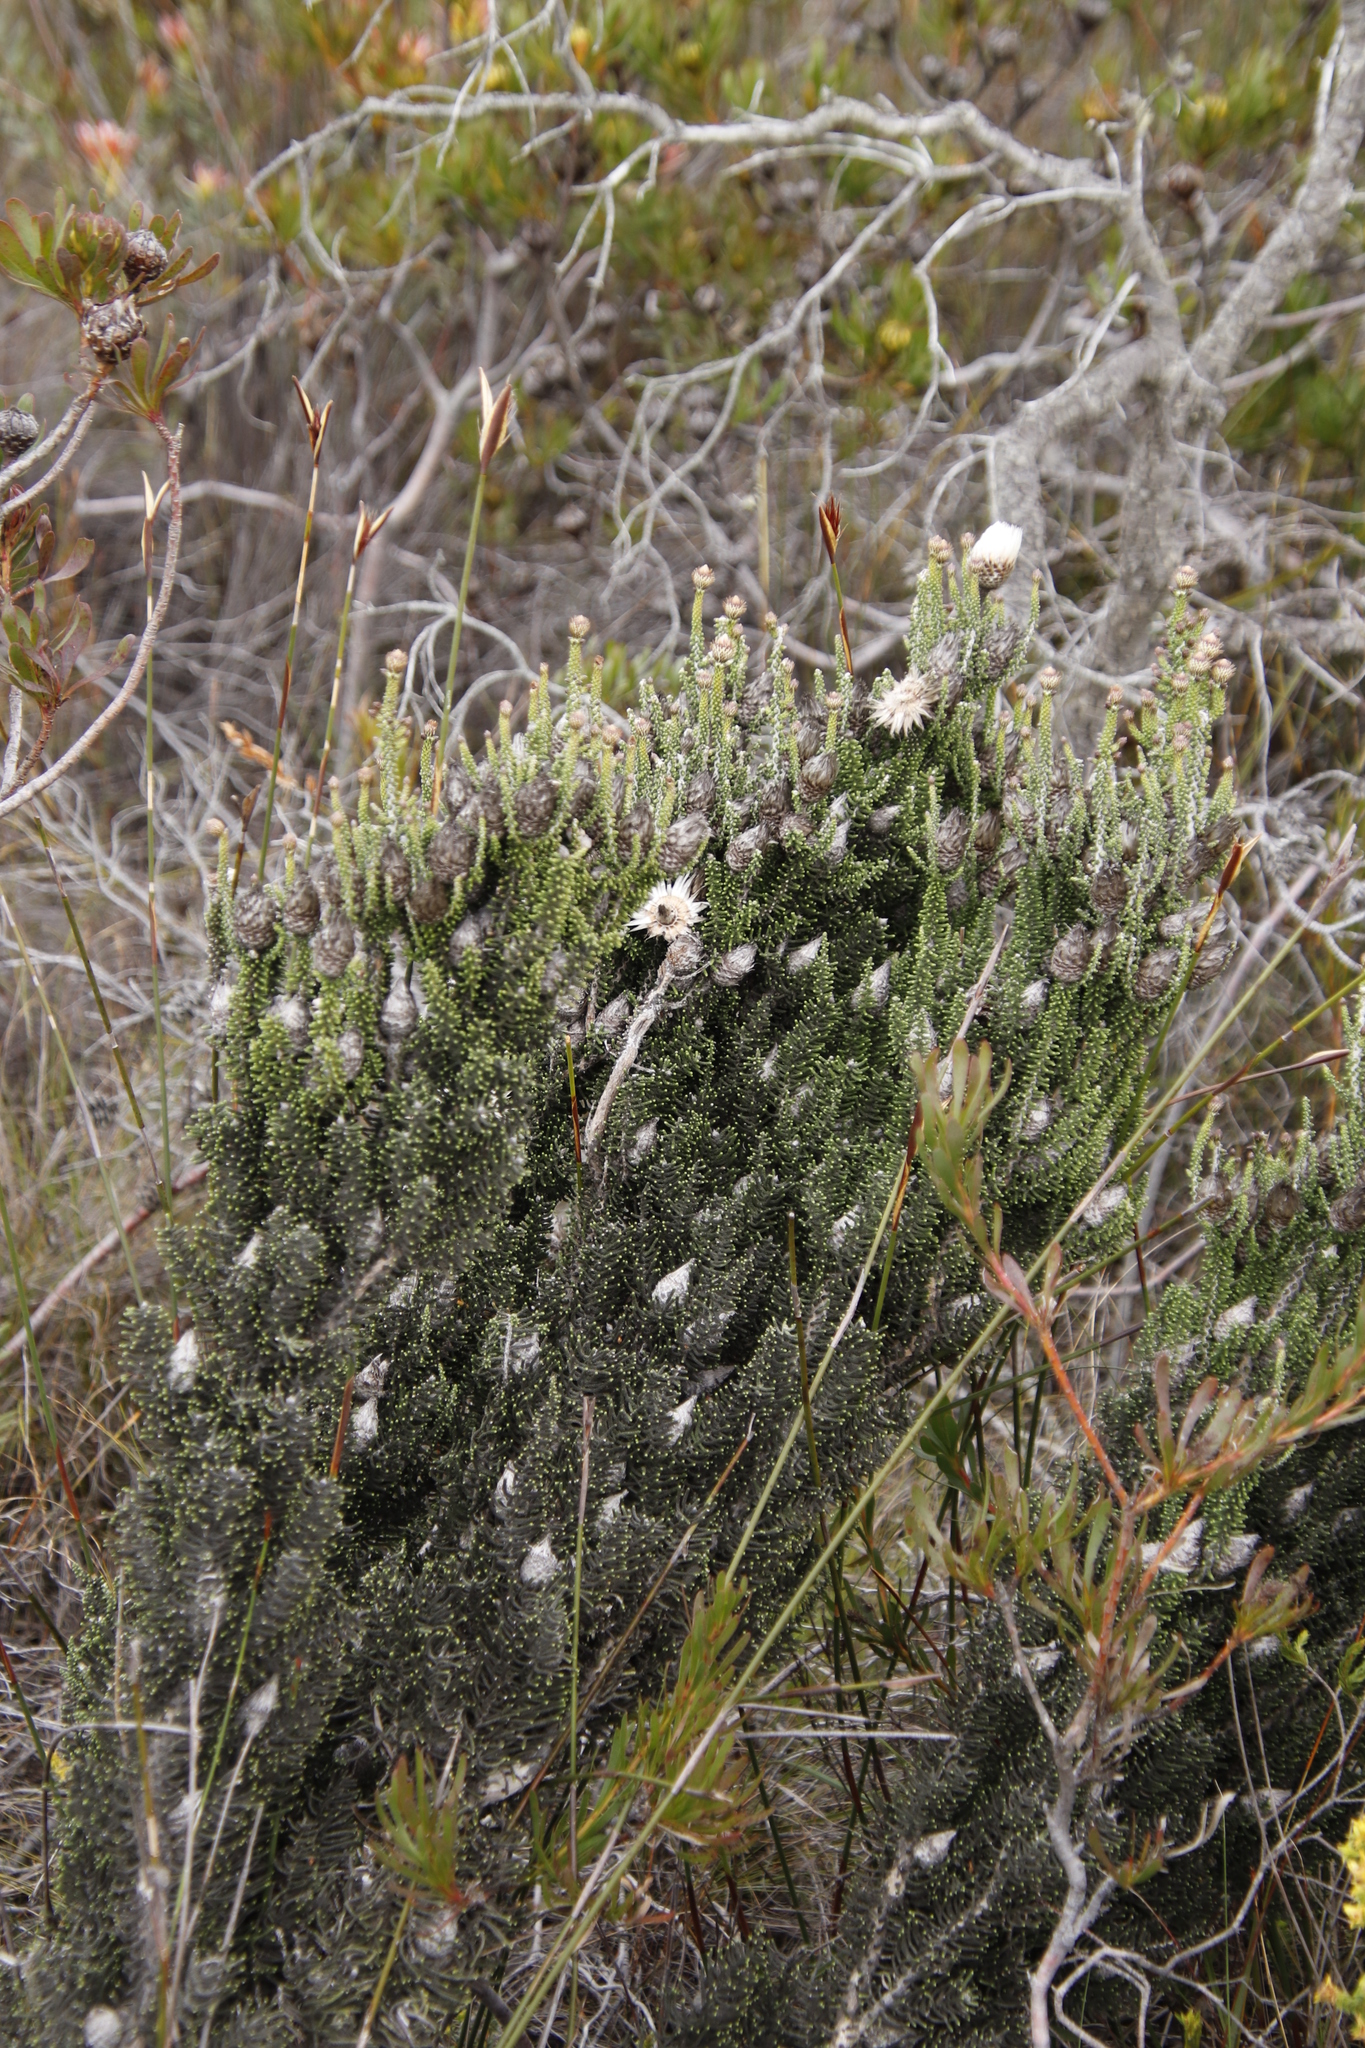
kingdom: Plantae
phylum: Tracheophyta
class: Magnoliopsida
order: Asterales
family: Asteraceae
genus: Phaenocoma
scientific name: Phaenocoma prolifera
